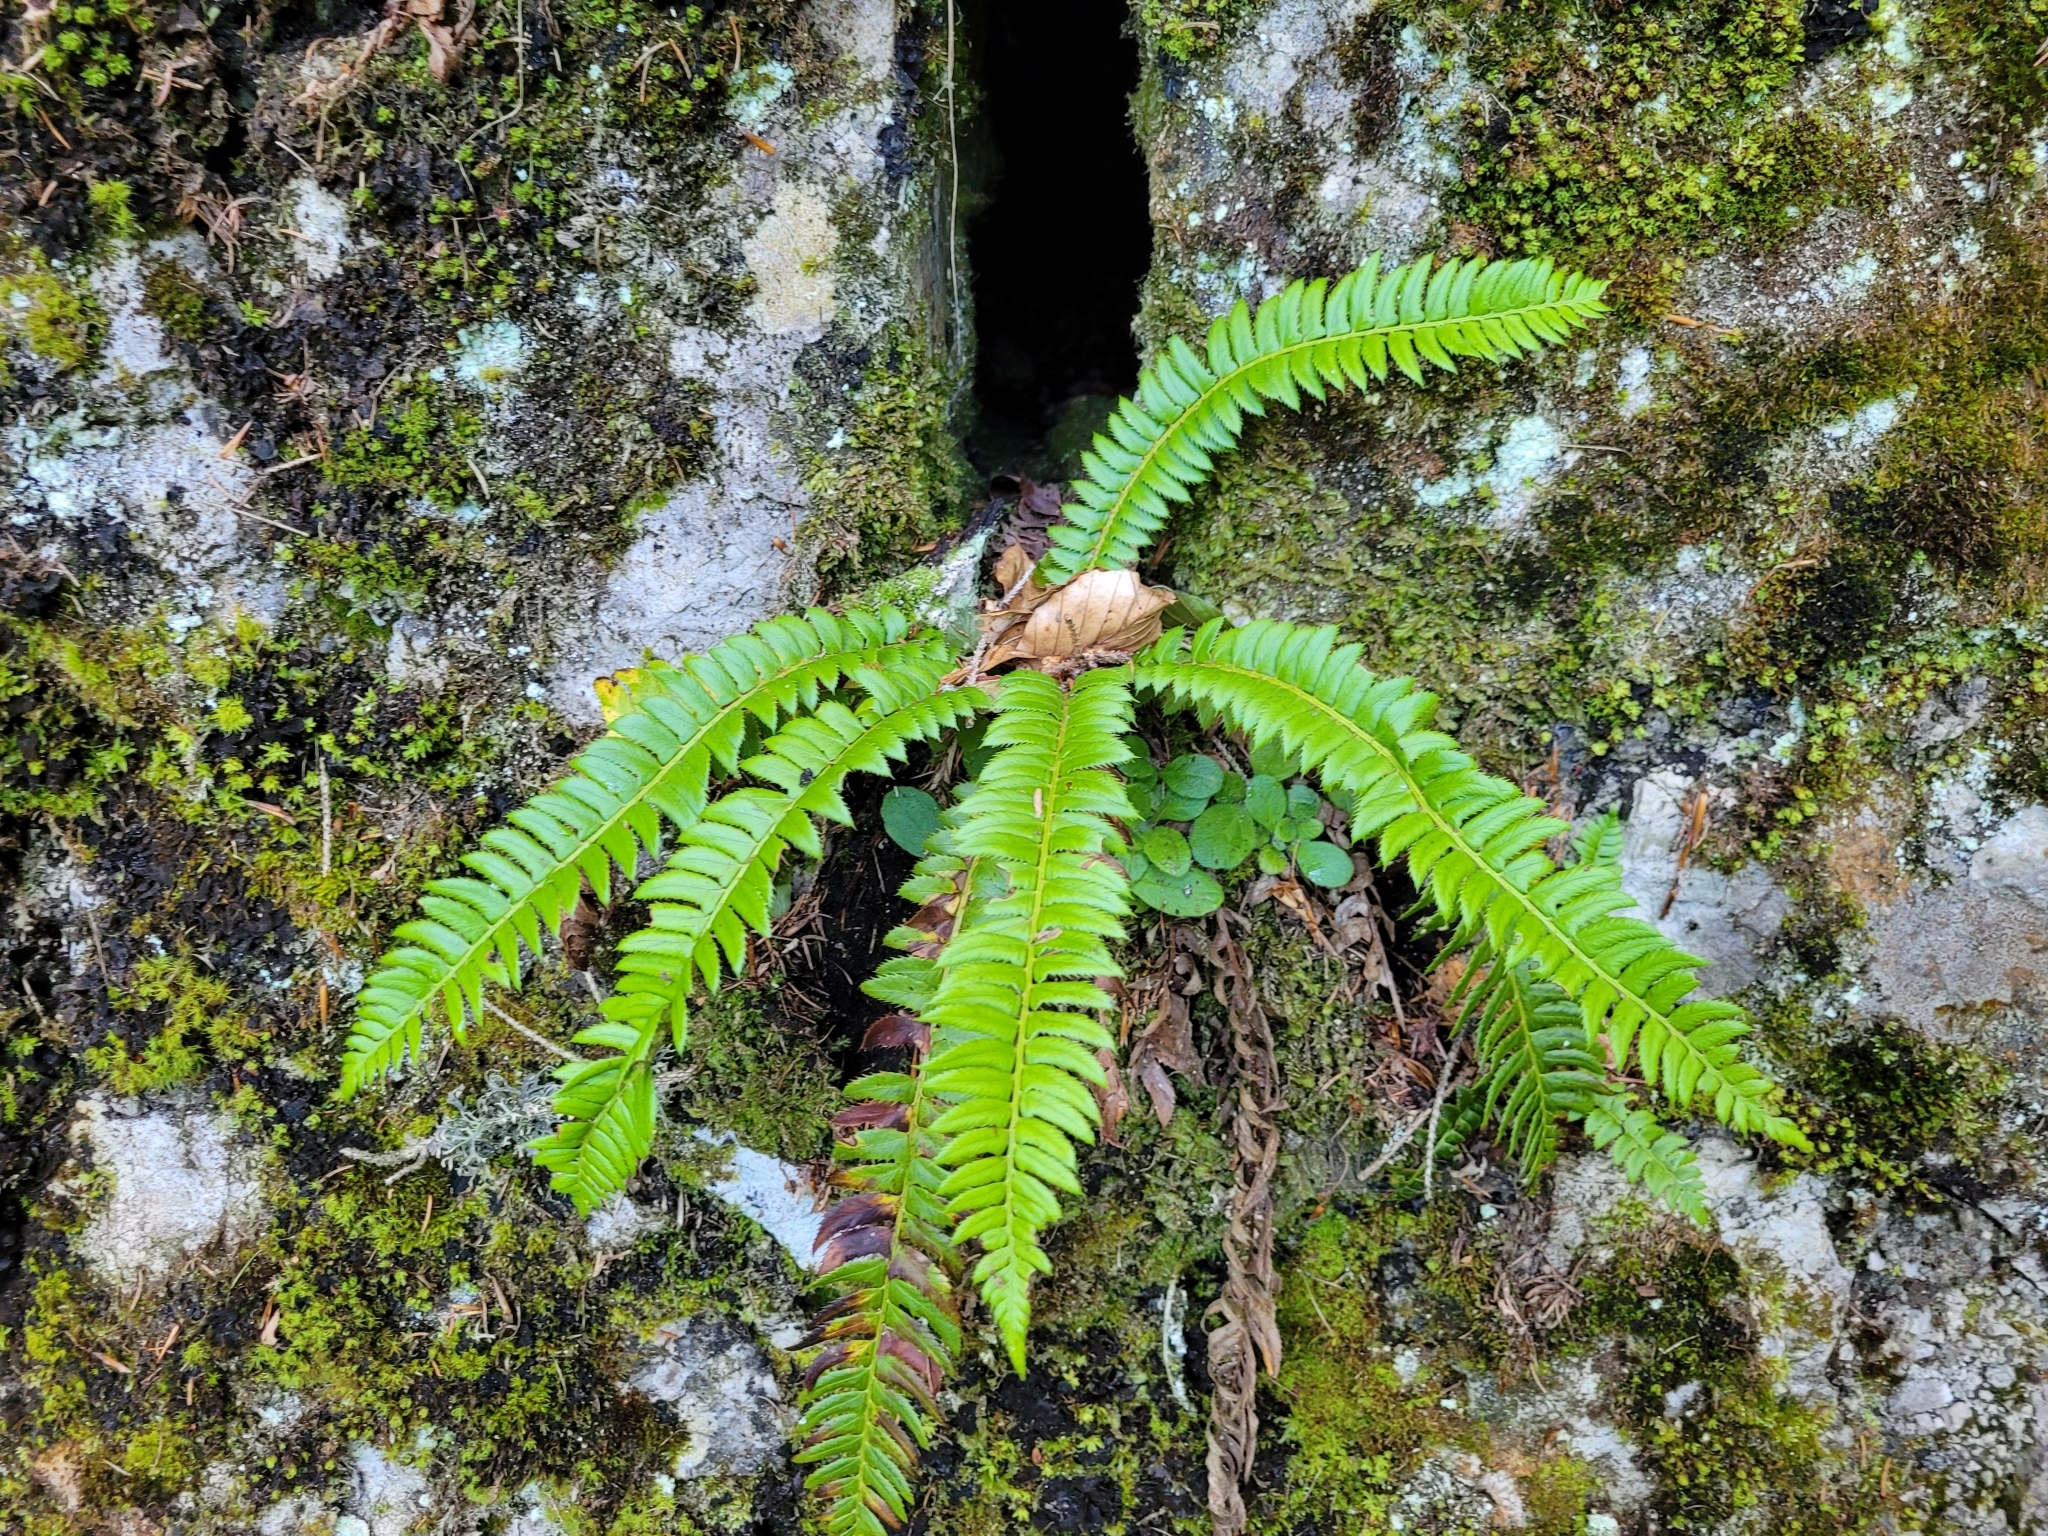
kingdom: Plantae
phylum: Tracheophyta
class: Polypodiopsida
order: Polypodiales
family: Dryopteridaceae
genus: Polystichum
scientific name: Polystichum lonchitis
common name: Holly fern
